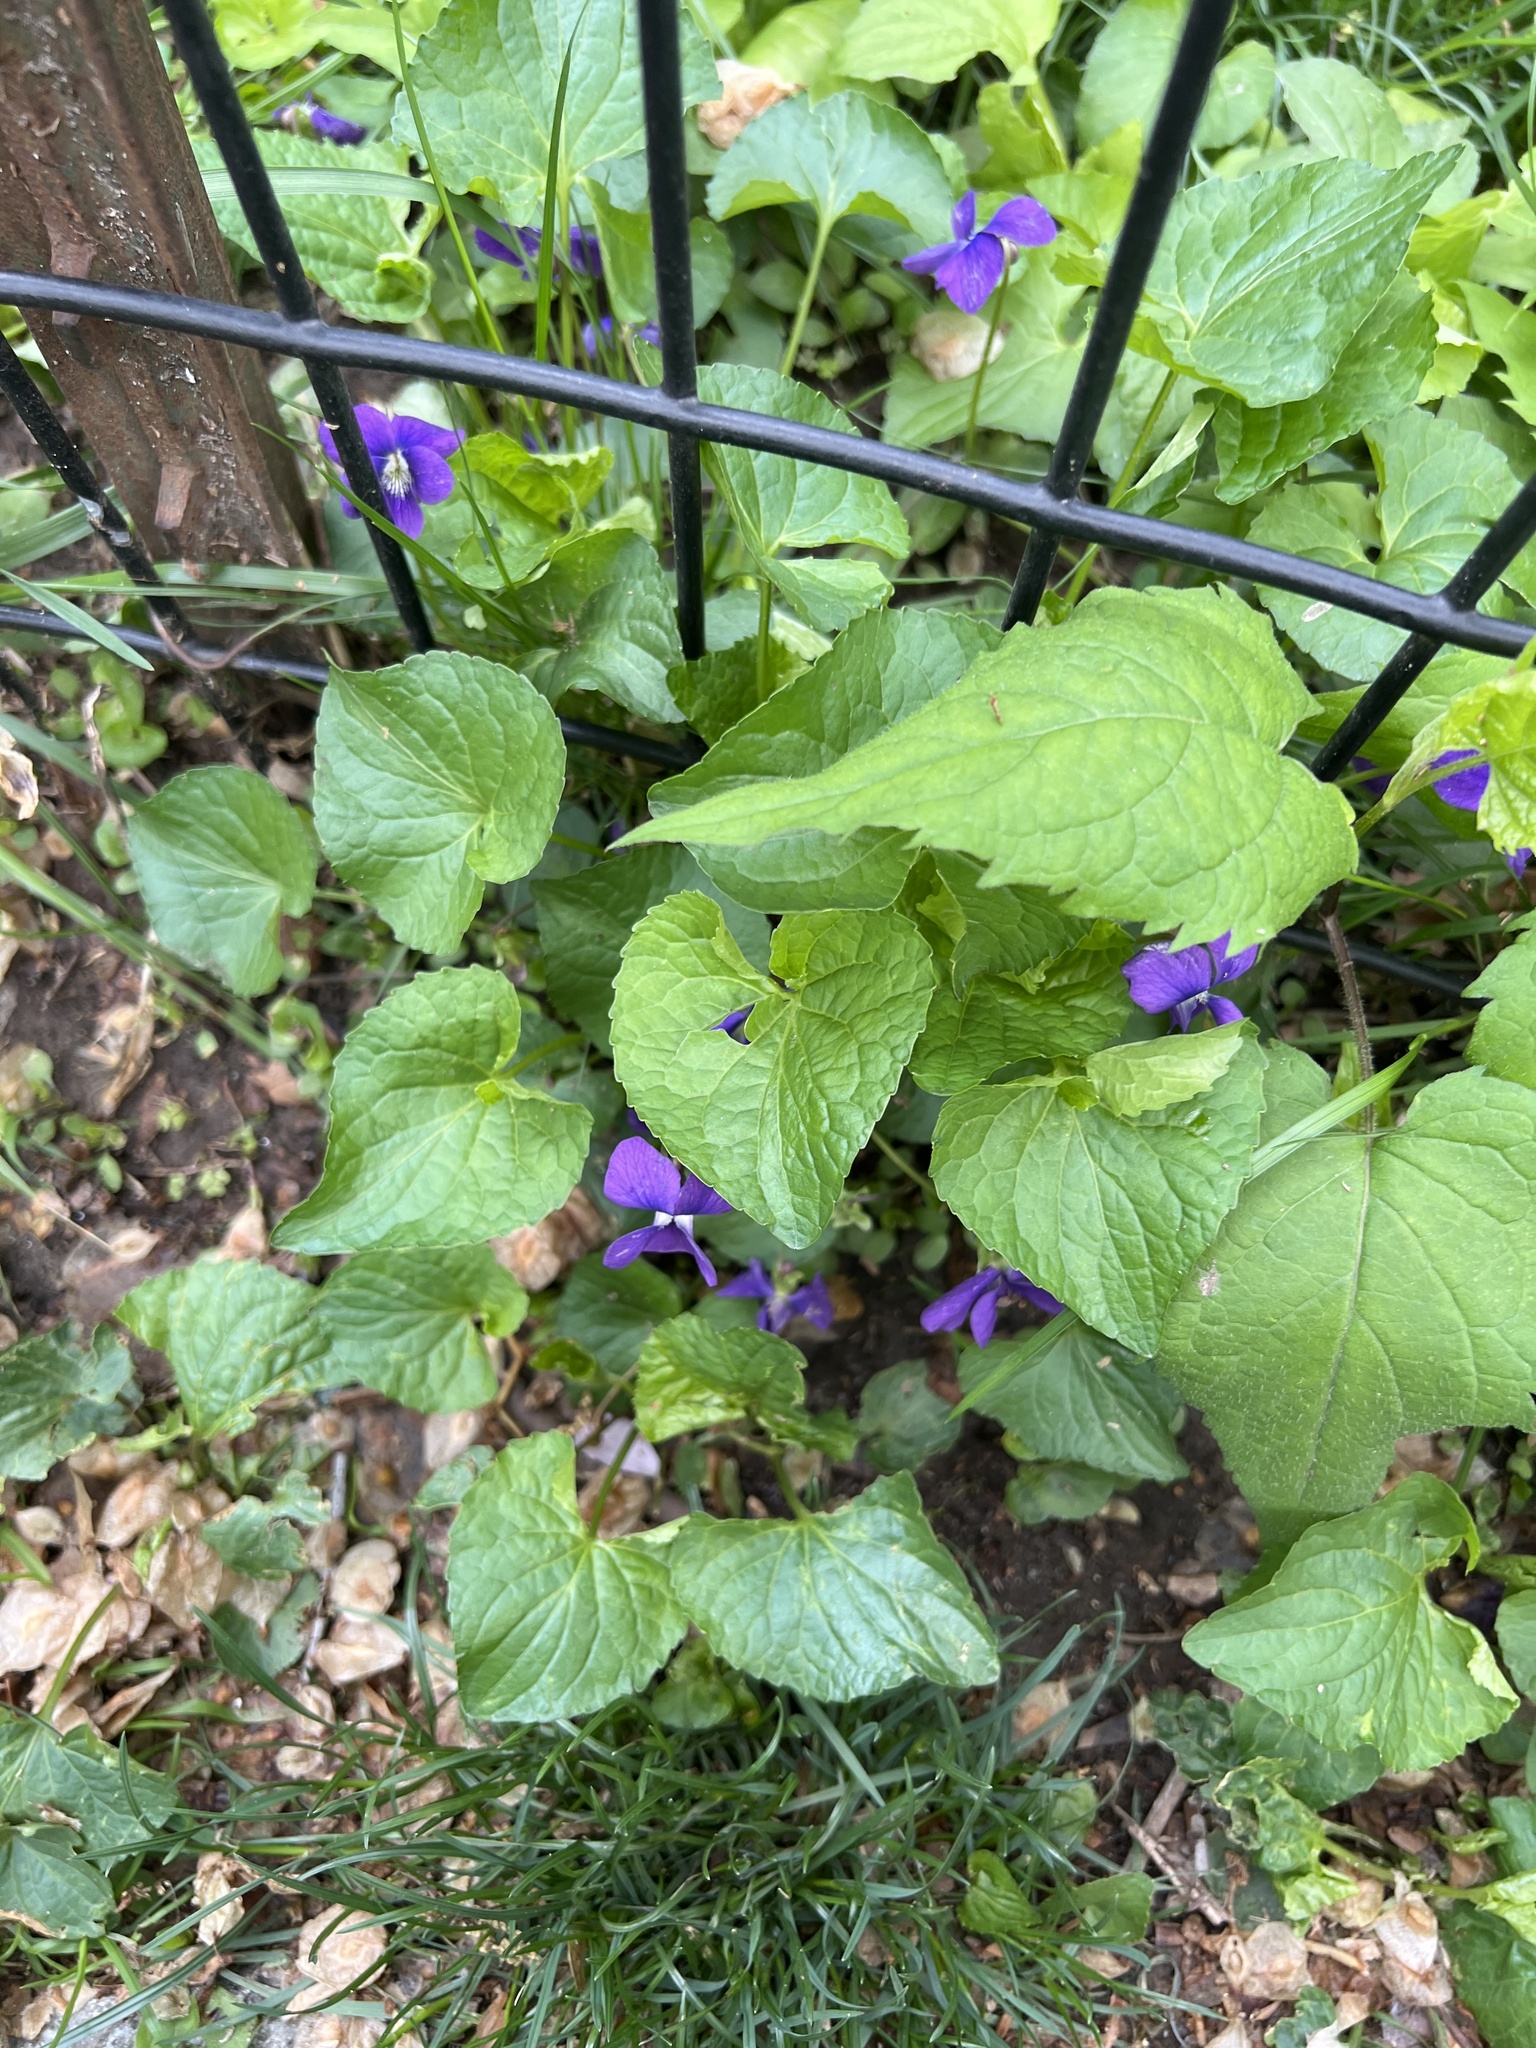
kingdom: Plantae
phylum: Tracheophyta
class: Magnoliopsida
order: Malpighiales
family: Violaceae
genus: Viola
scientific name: Viola sororia
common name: Dooryard violet
